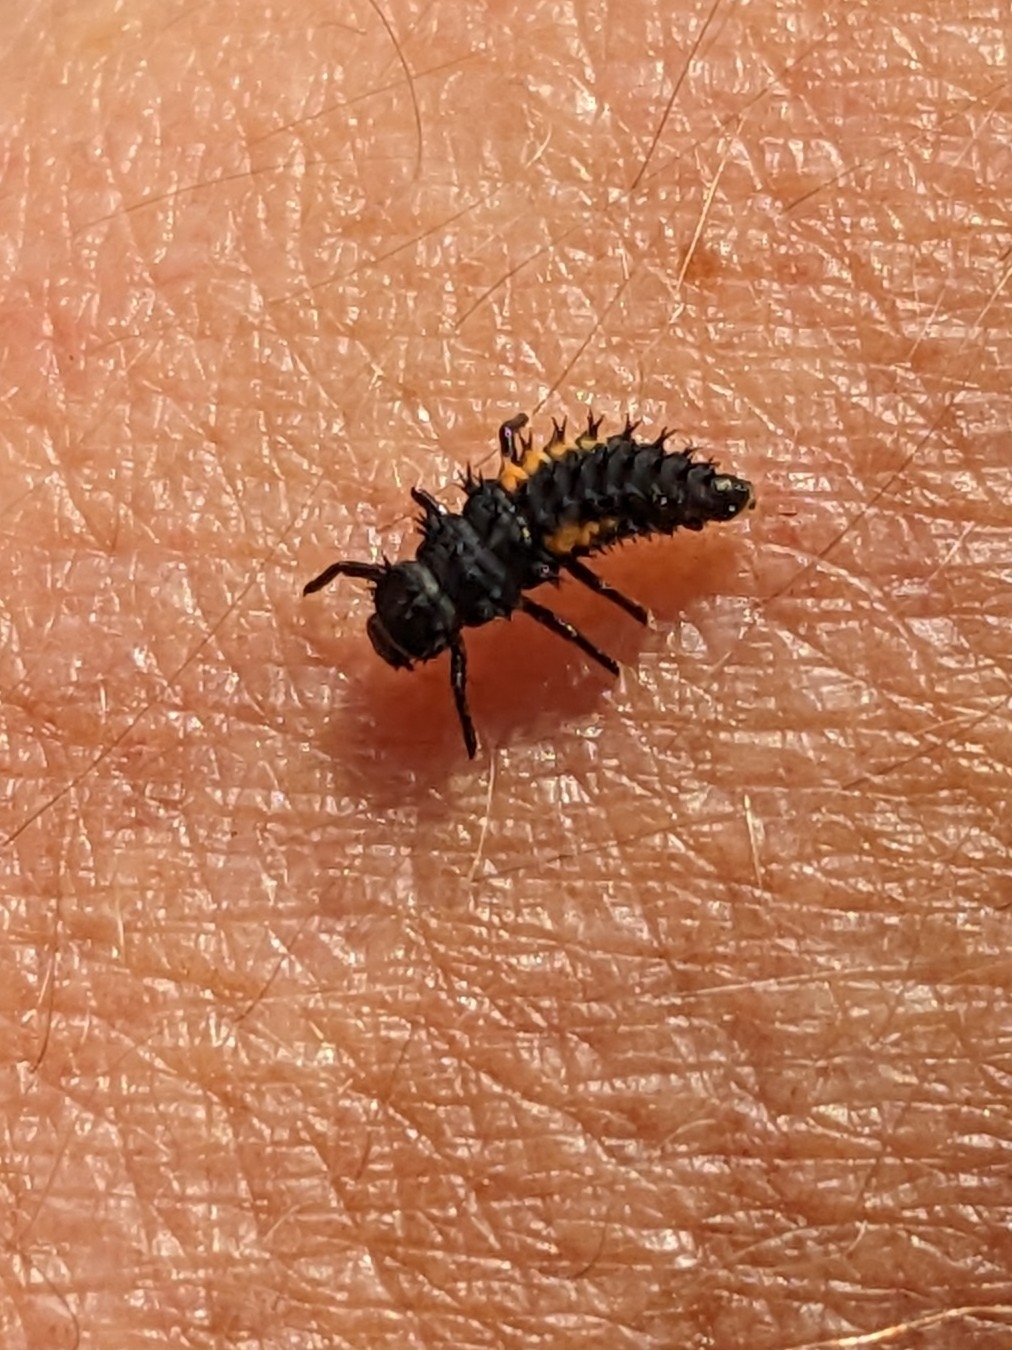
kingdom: Animalia
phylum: Arthropoda
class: Insecta
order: Coleoptera
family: Coccinellidae
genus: Harmonia
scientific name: Harmonia axyridis
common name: Harlequin ladybird
